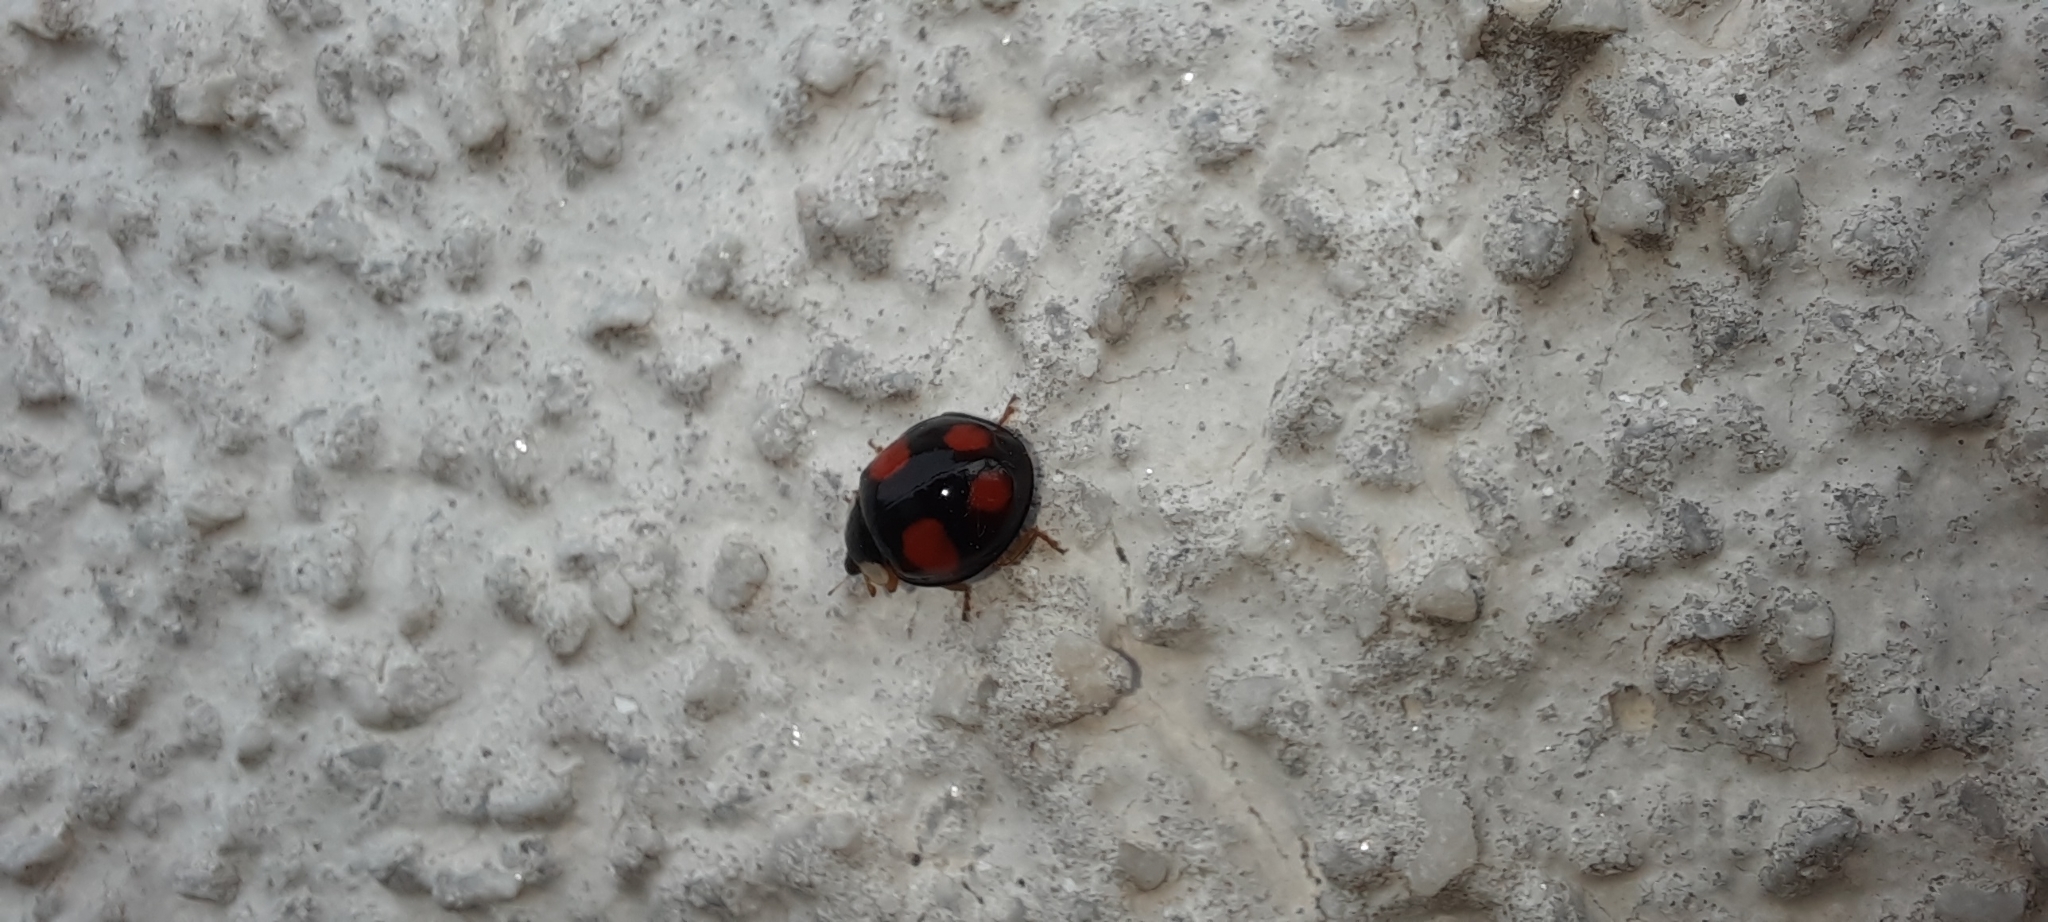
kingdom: Animalia
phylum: Arthropoda
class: Insecta
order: Coleoptera
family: Coccinellidae
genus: Harmonia
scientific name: Harmonia axyridis
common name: Harlequin ladybird
